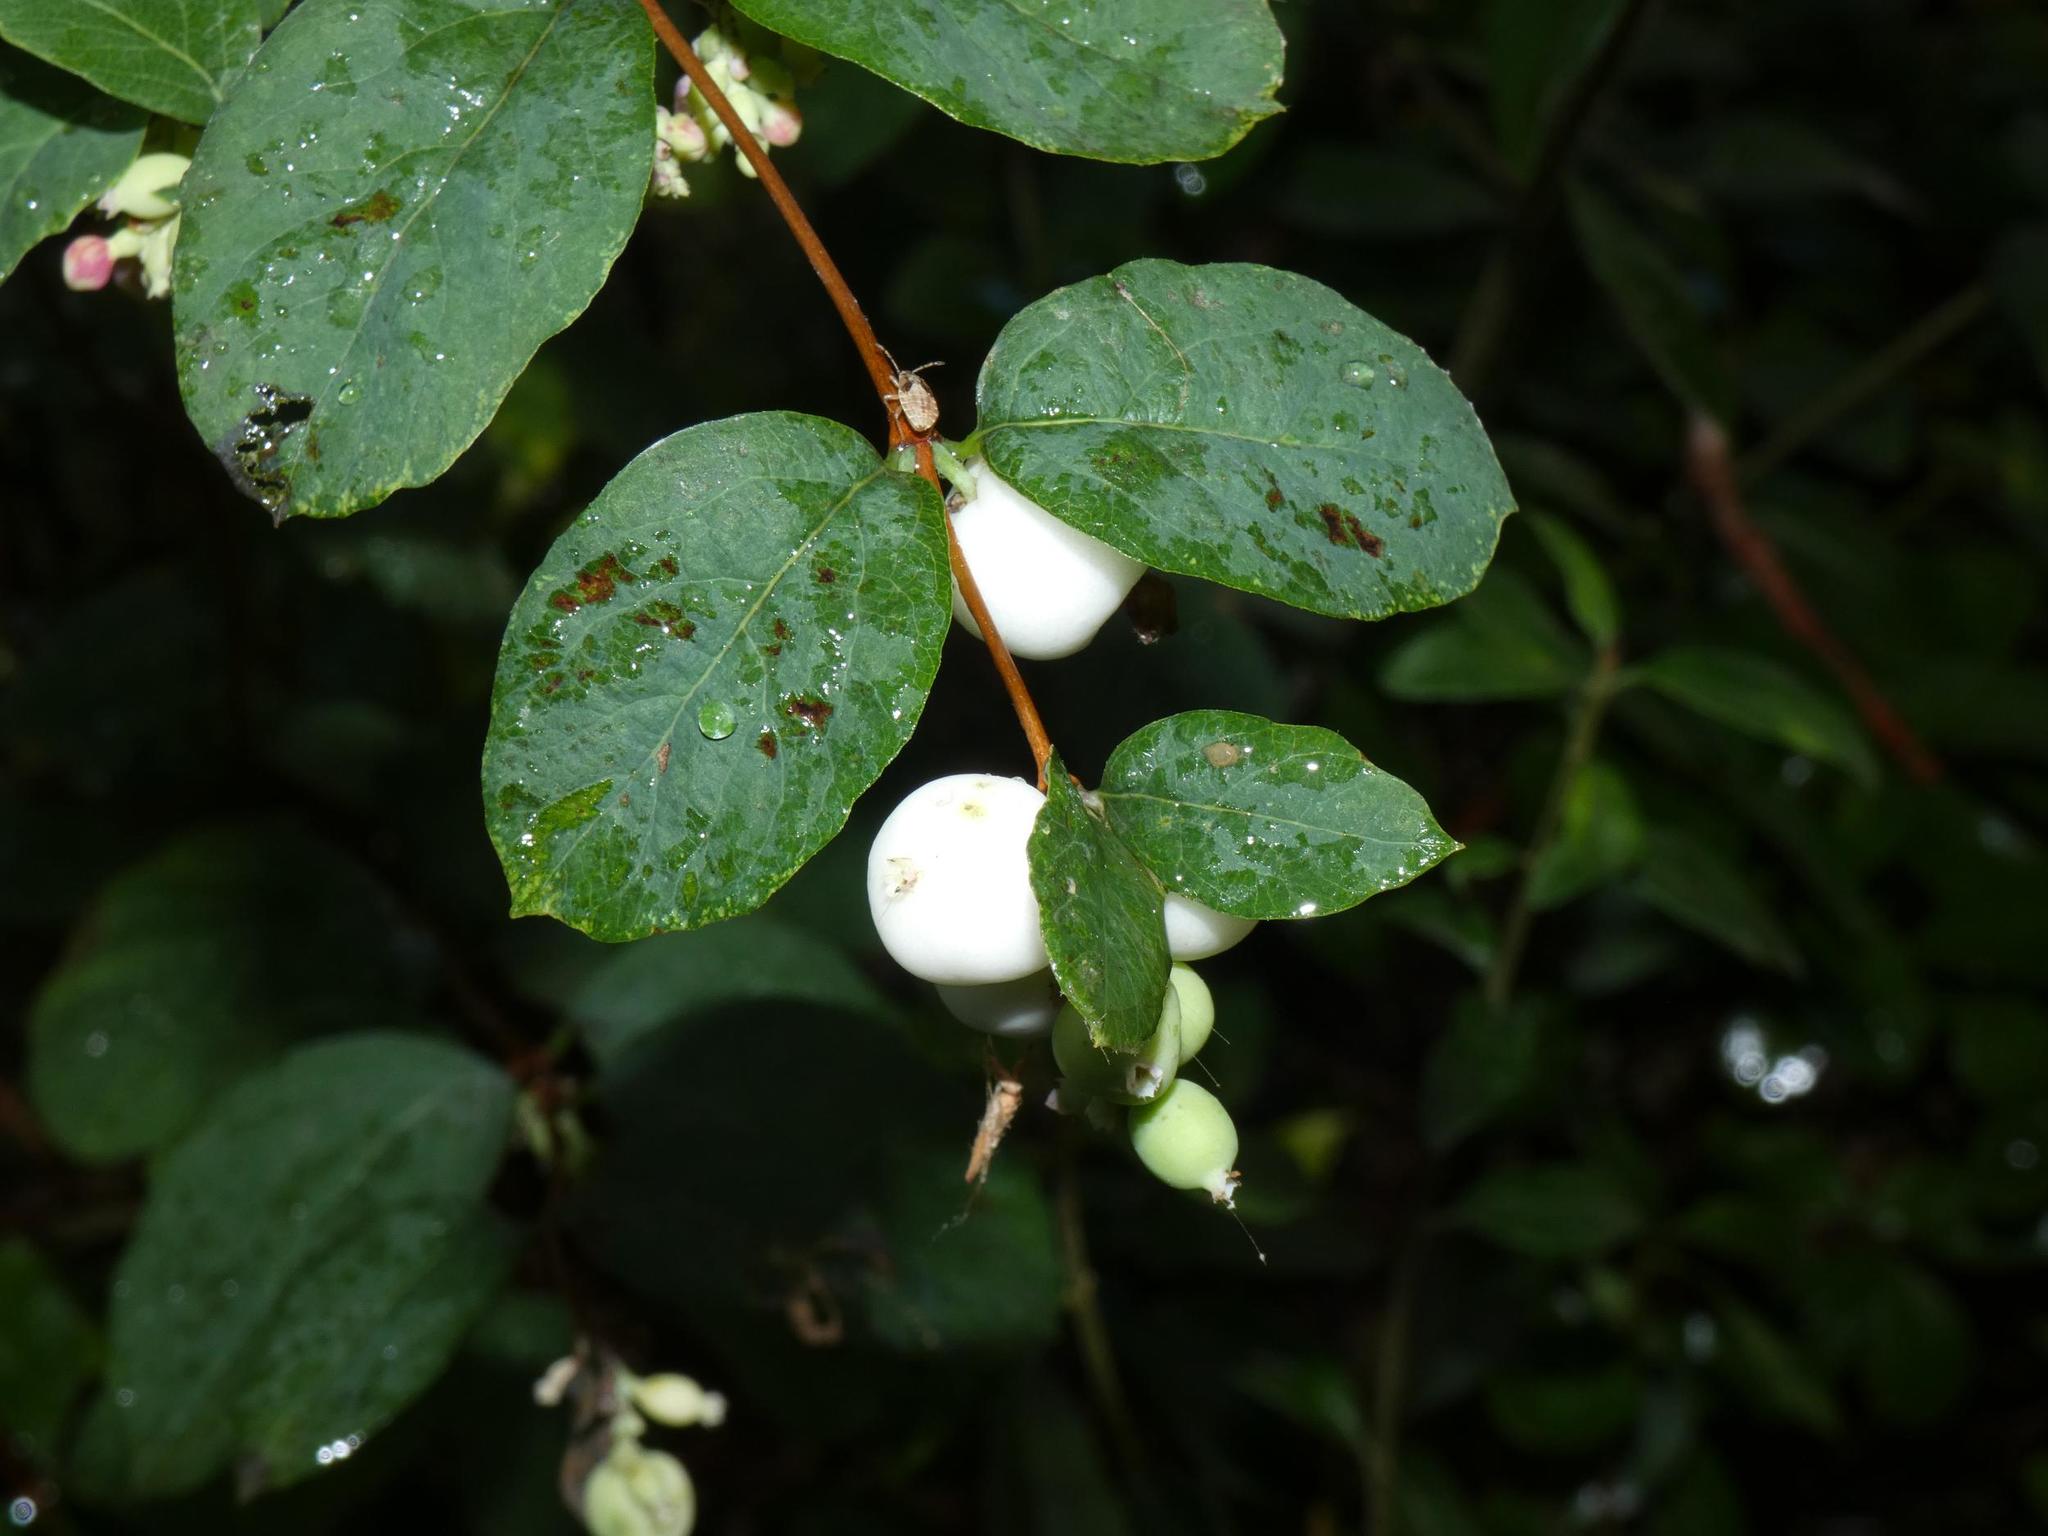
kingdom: Plantae
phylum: Tracheophyta
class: Magnoliopsida
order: Dipsacales
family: Caprifoliaceae
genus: Symphoricarpos
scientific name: Symphoricarpos albus
